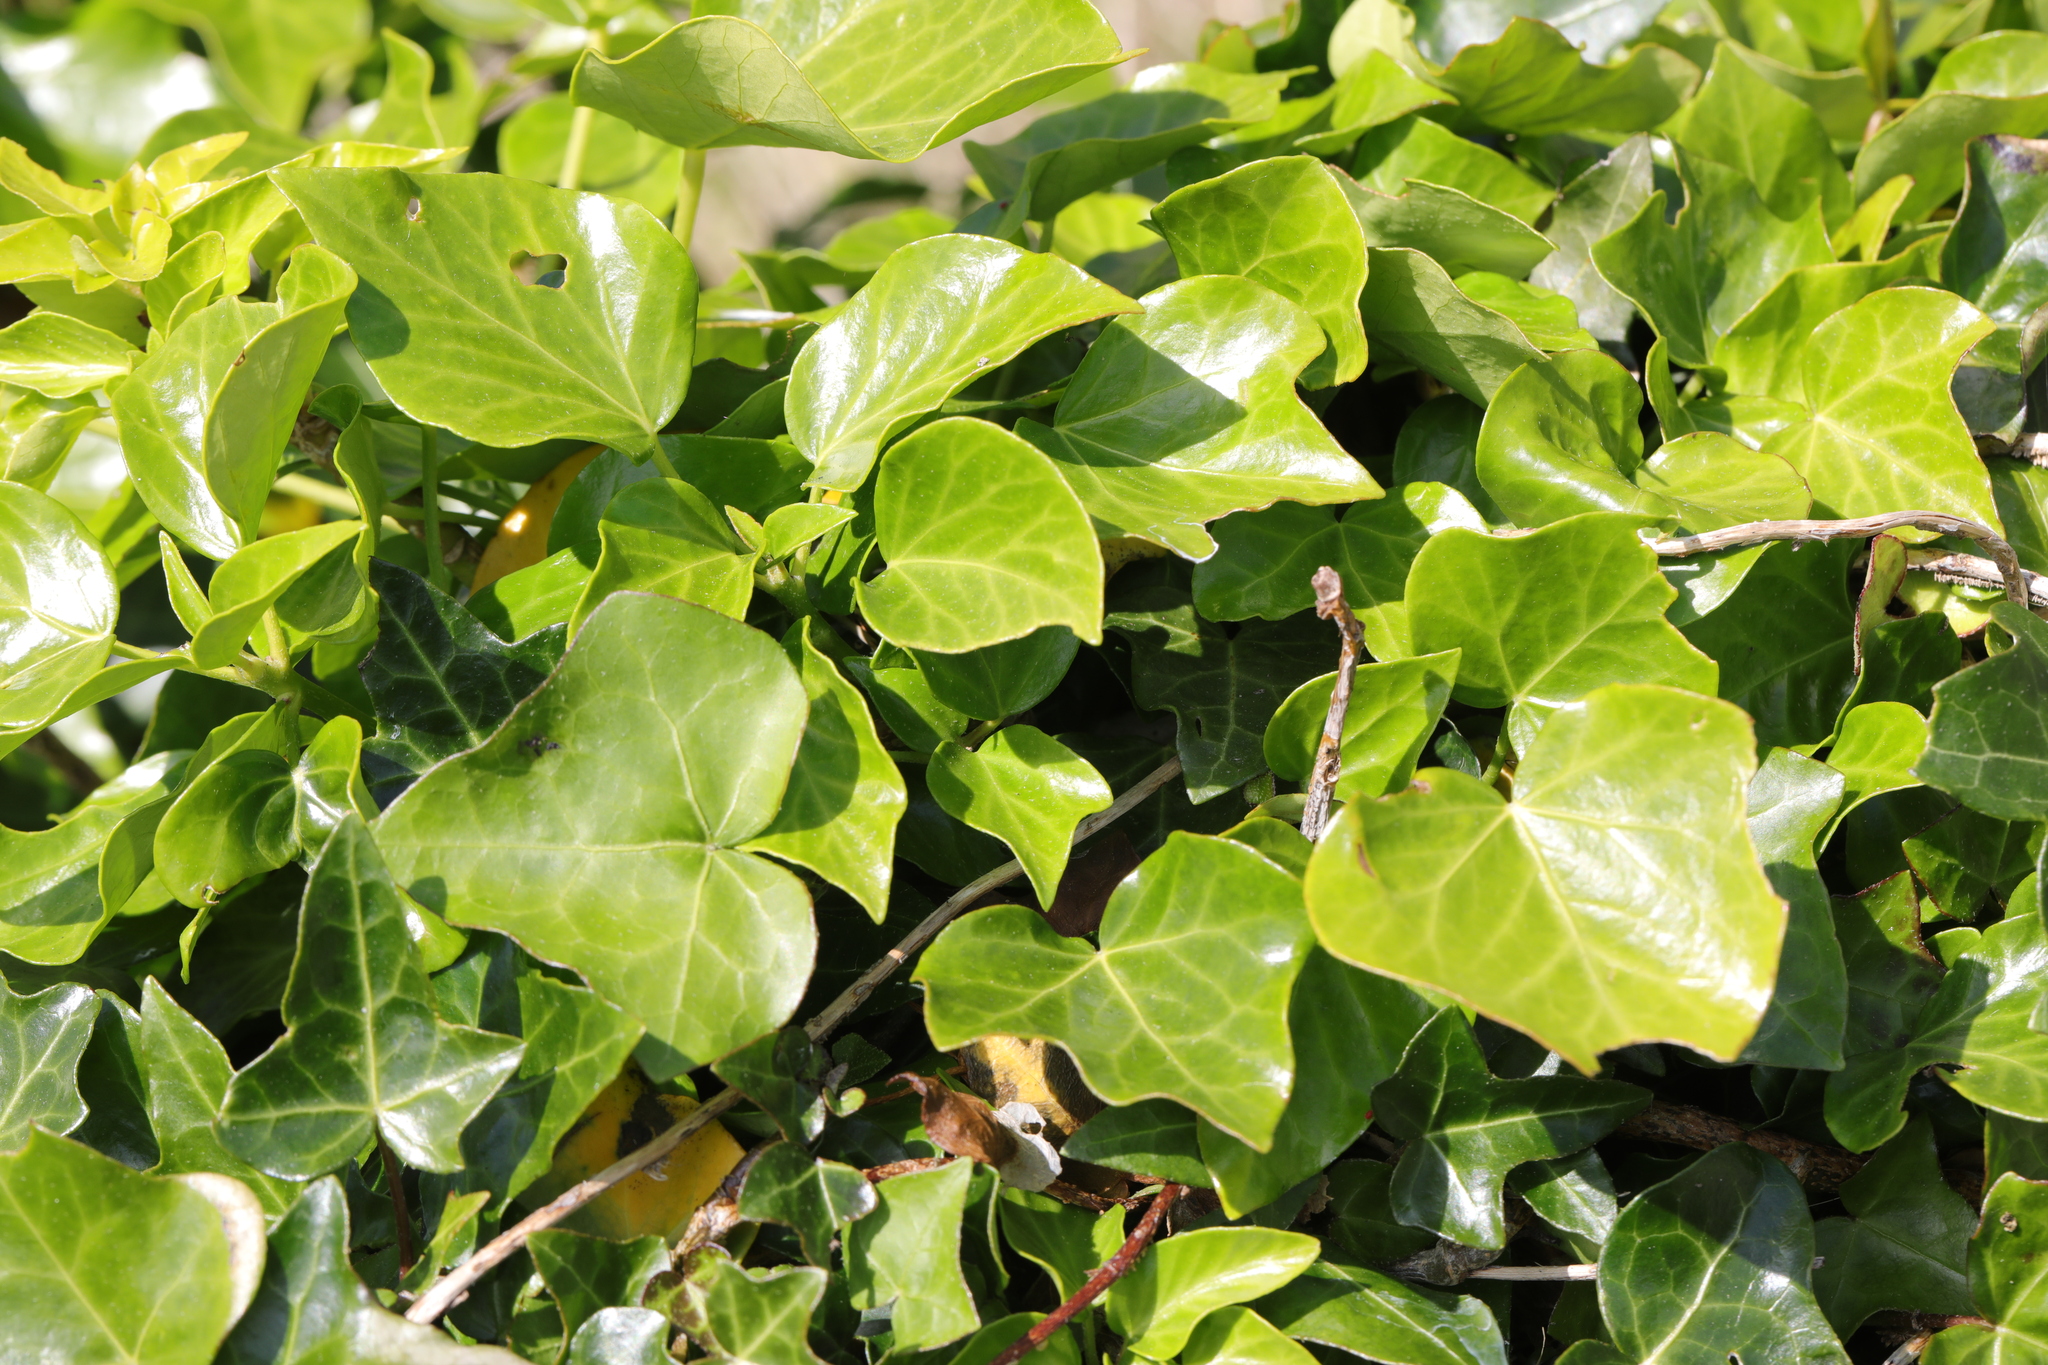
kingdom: Plantae
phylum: Tracheophyta
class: Magnoliopsida
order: Apiales
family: Araliaceae
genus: Hedera
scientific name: Hedera helix
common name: Ivy
